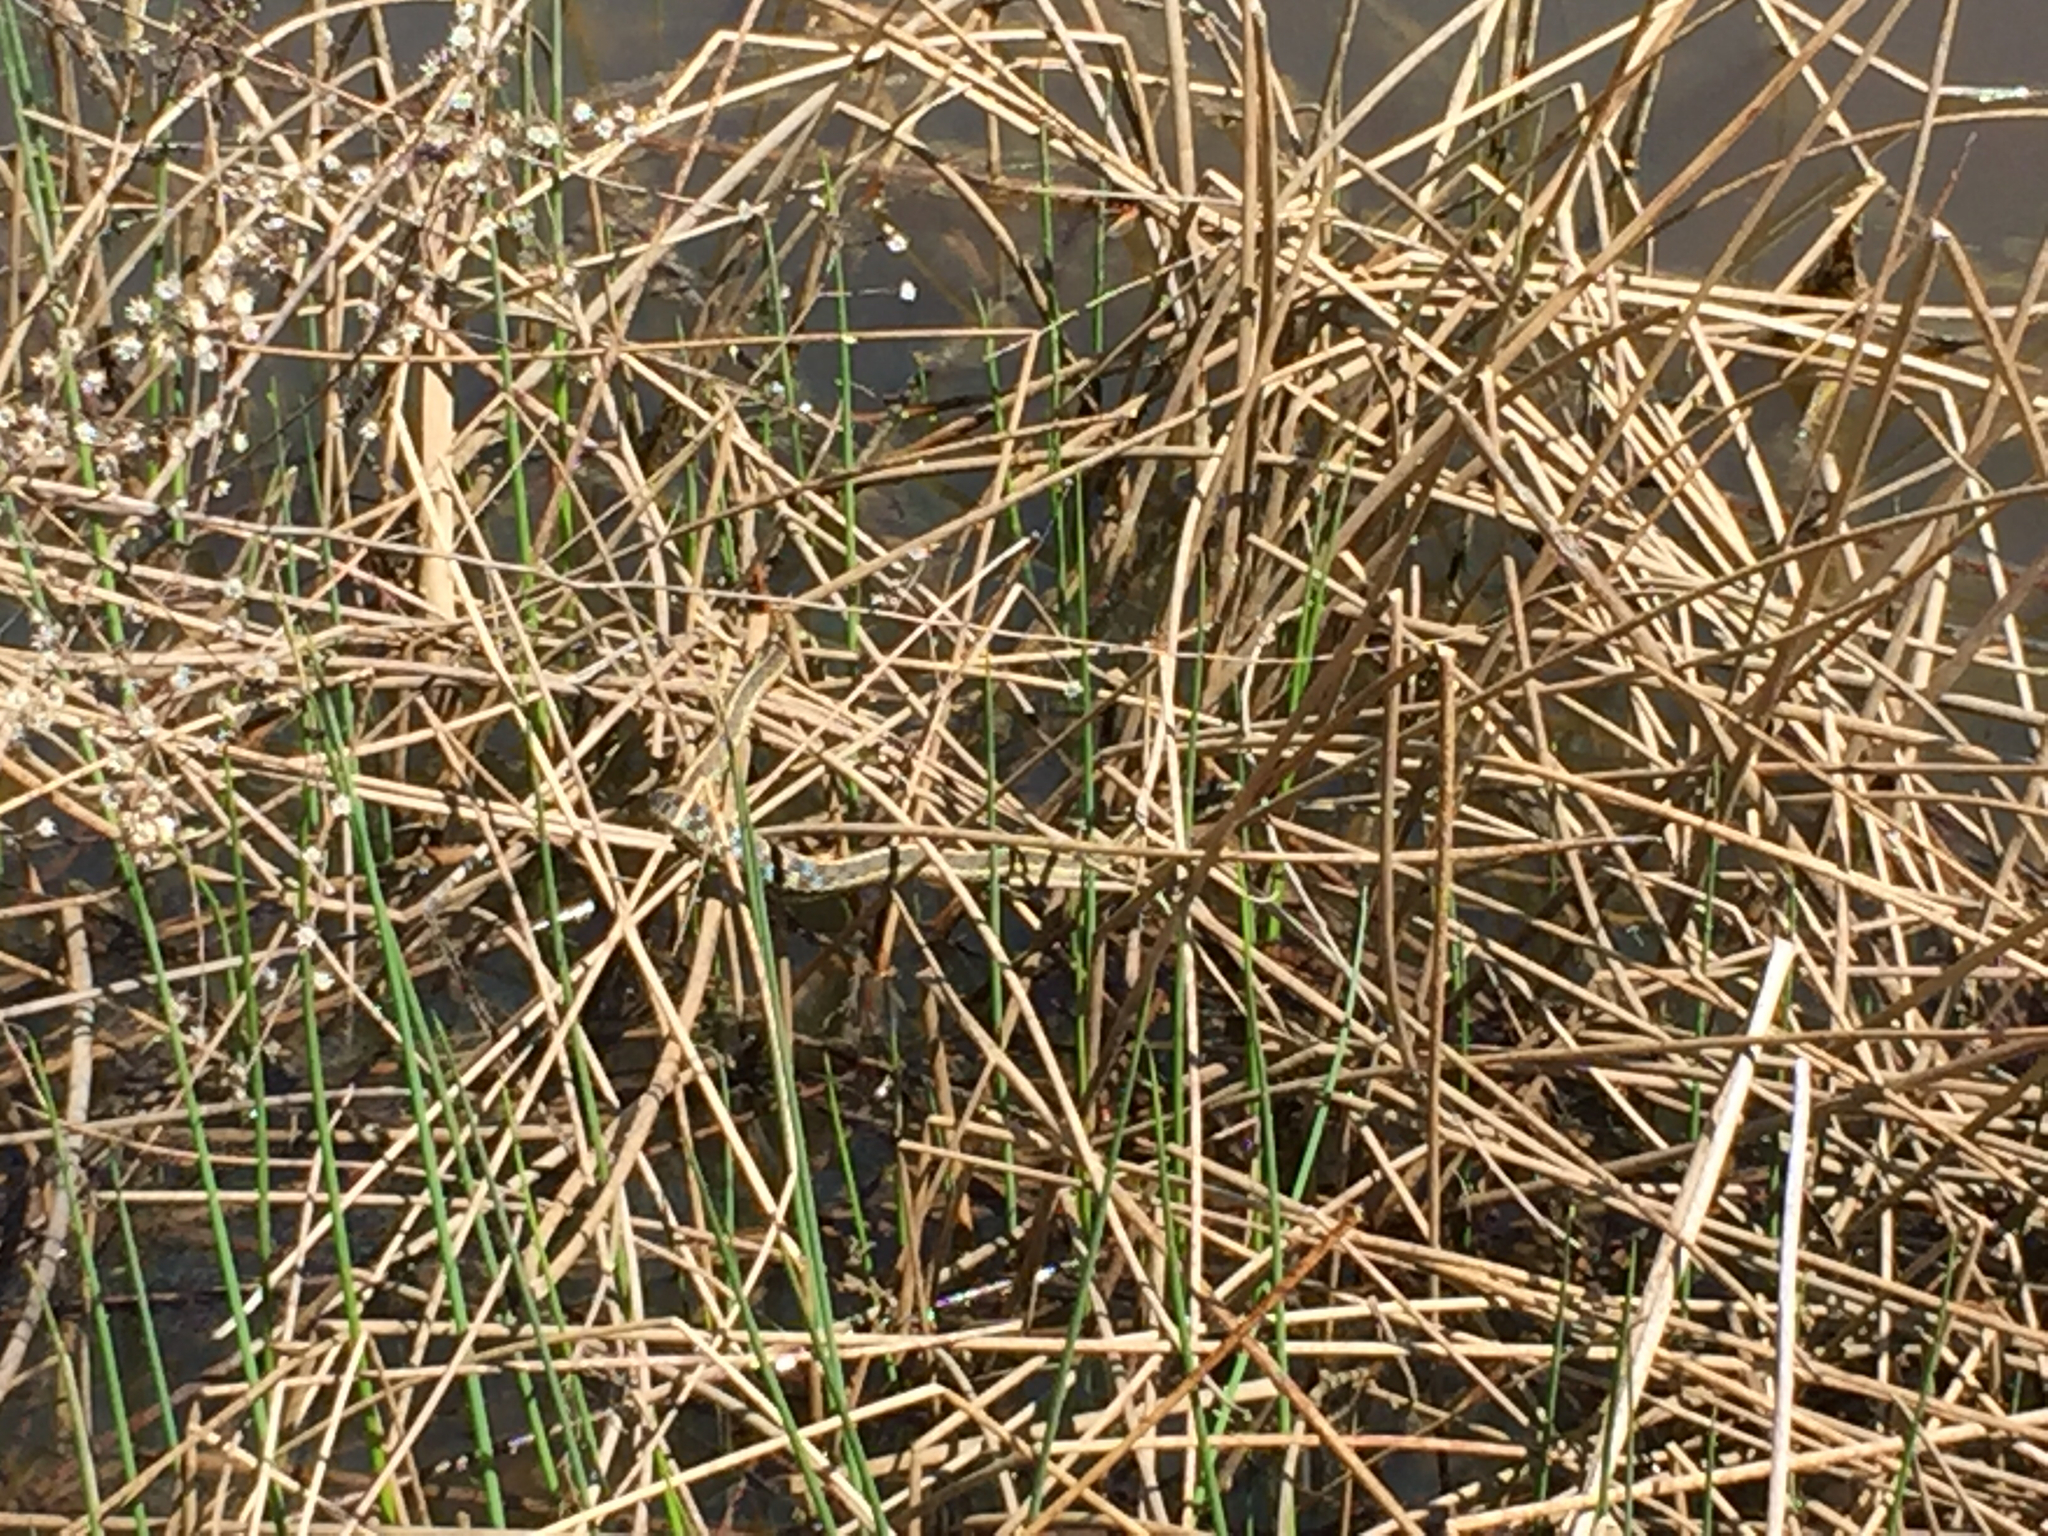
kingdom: Animalia
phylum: Chordata
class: Squamata
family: Colubridae
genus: Thamnophis
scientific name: Thamnophis sirtalis
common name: Common garter snake
